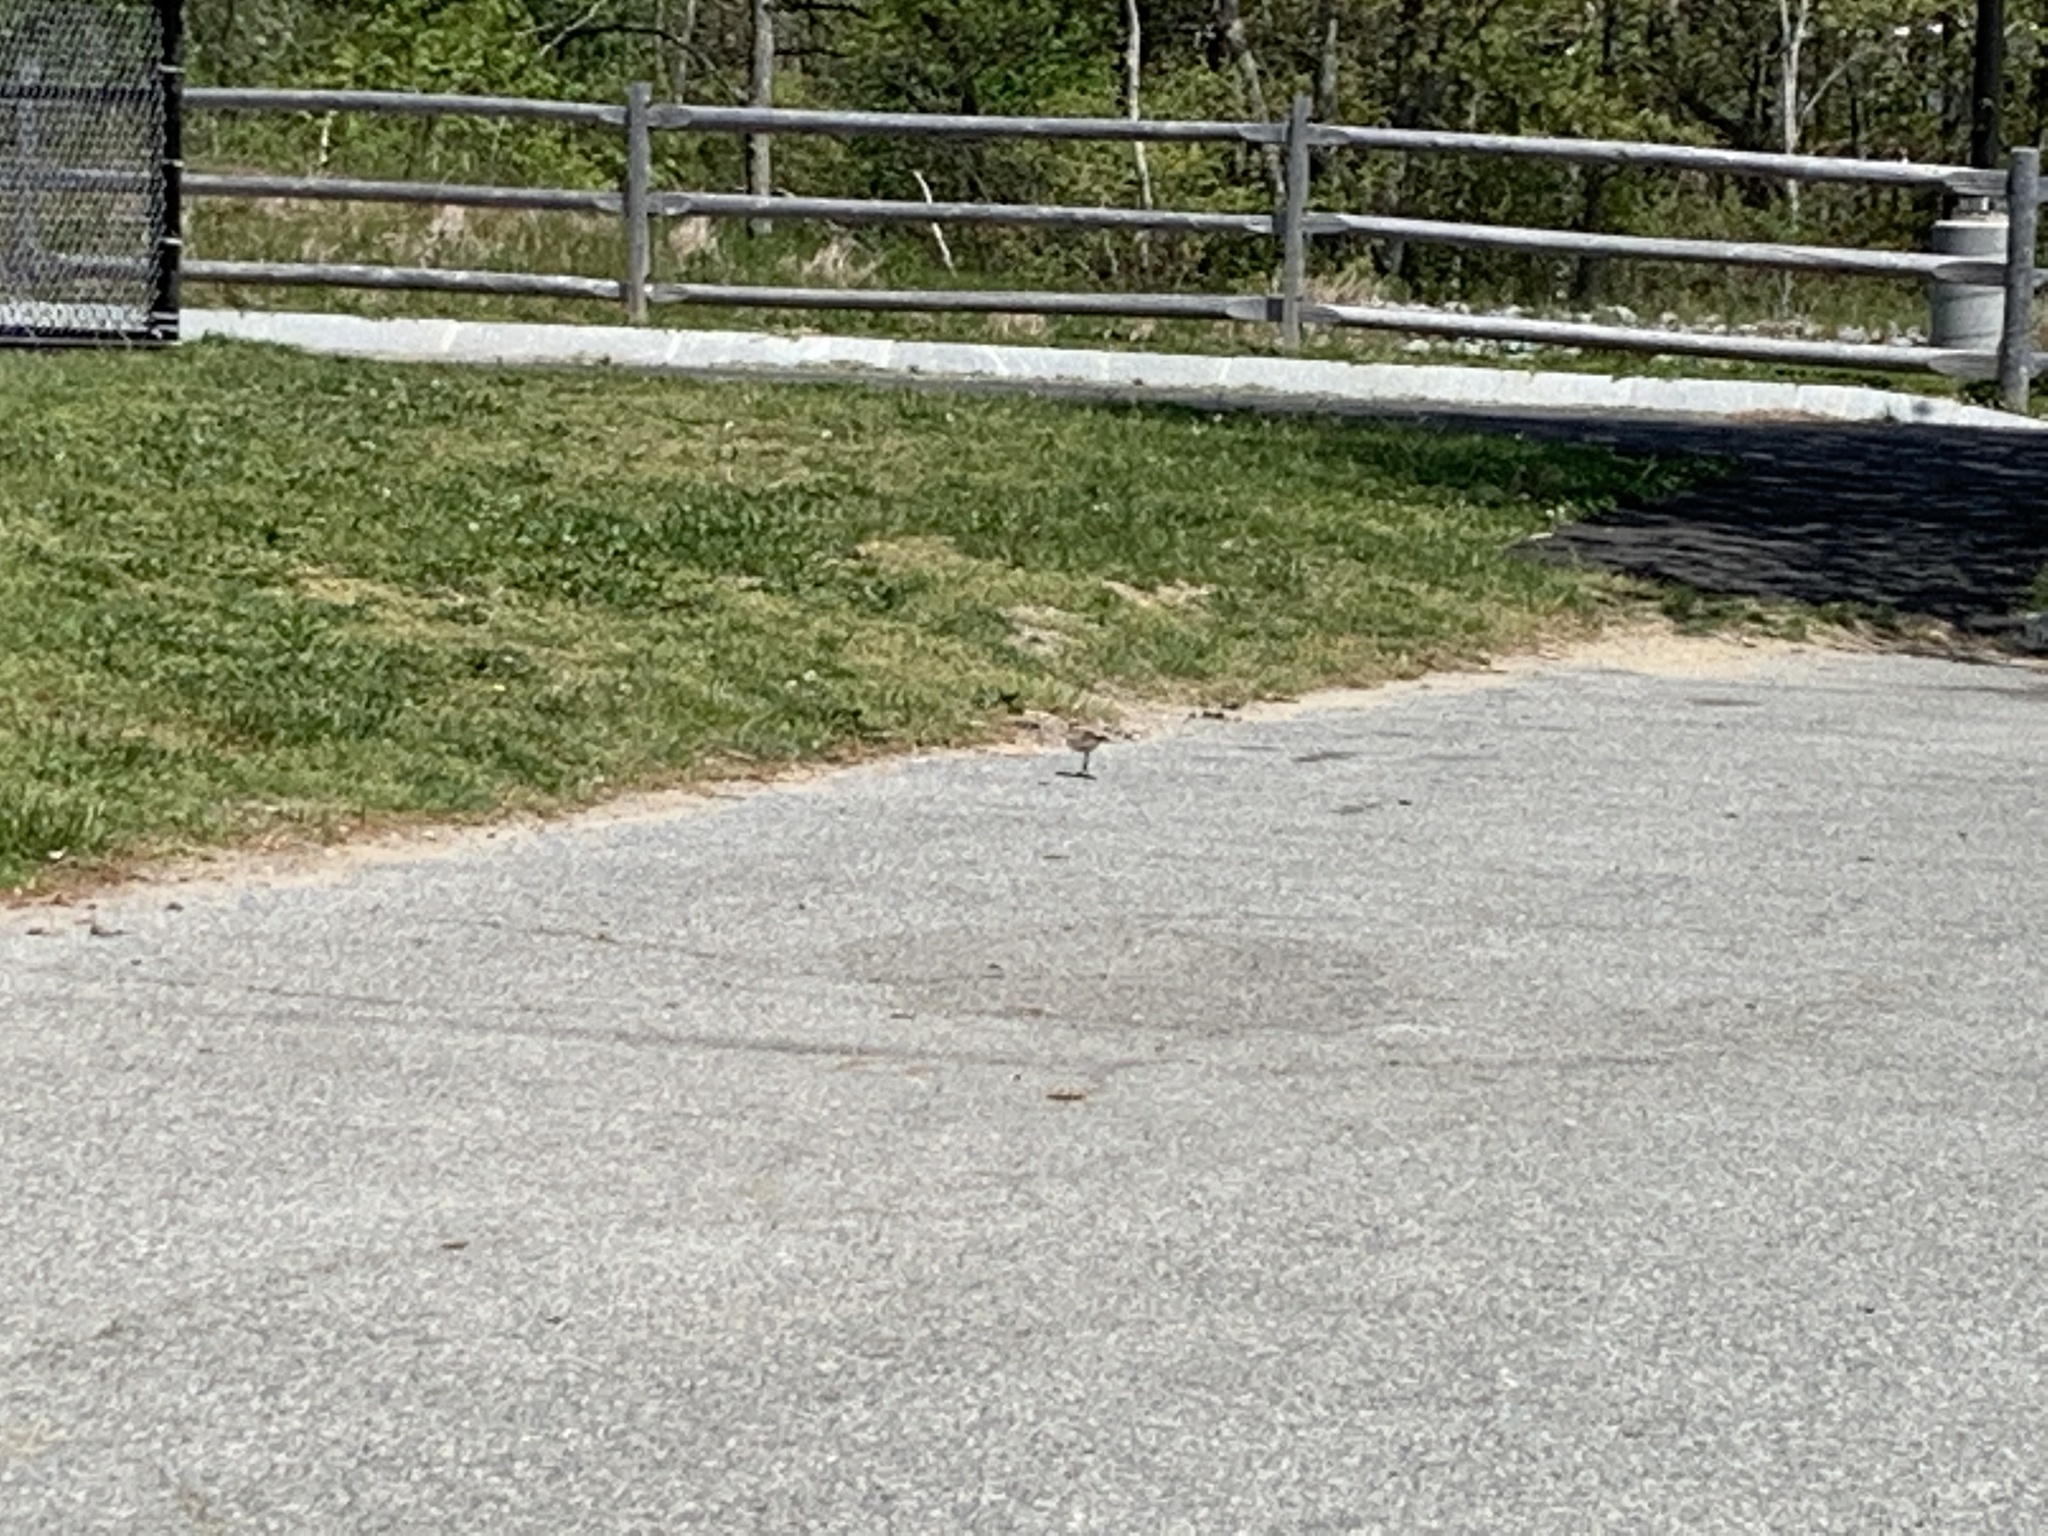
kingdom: Animalia
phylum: Chordata
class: Aves
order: Charadriiformes
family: Charadriidae
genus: Charadrius
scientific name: Charadrius vociferus
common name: Killdeer
